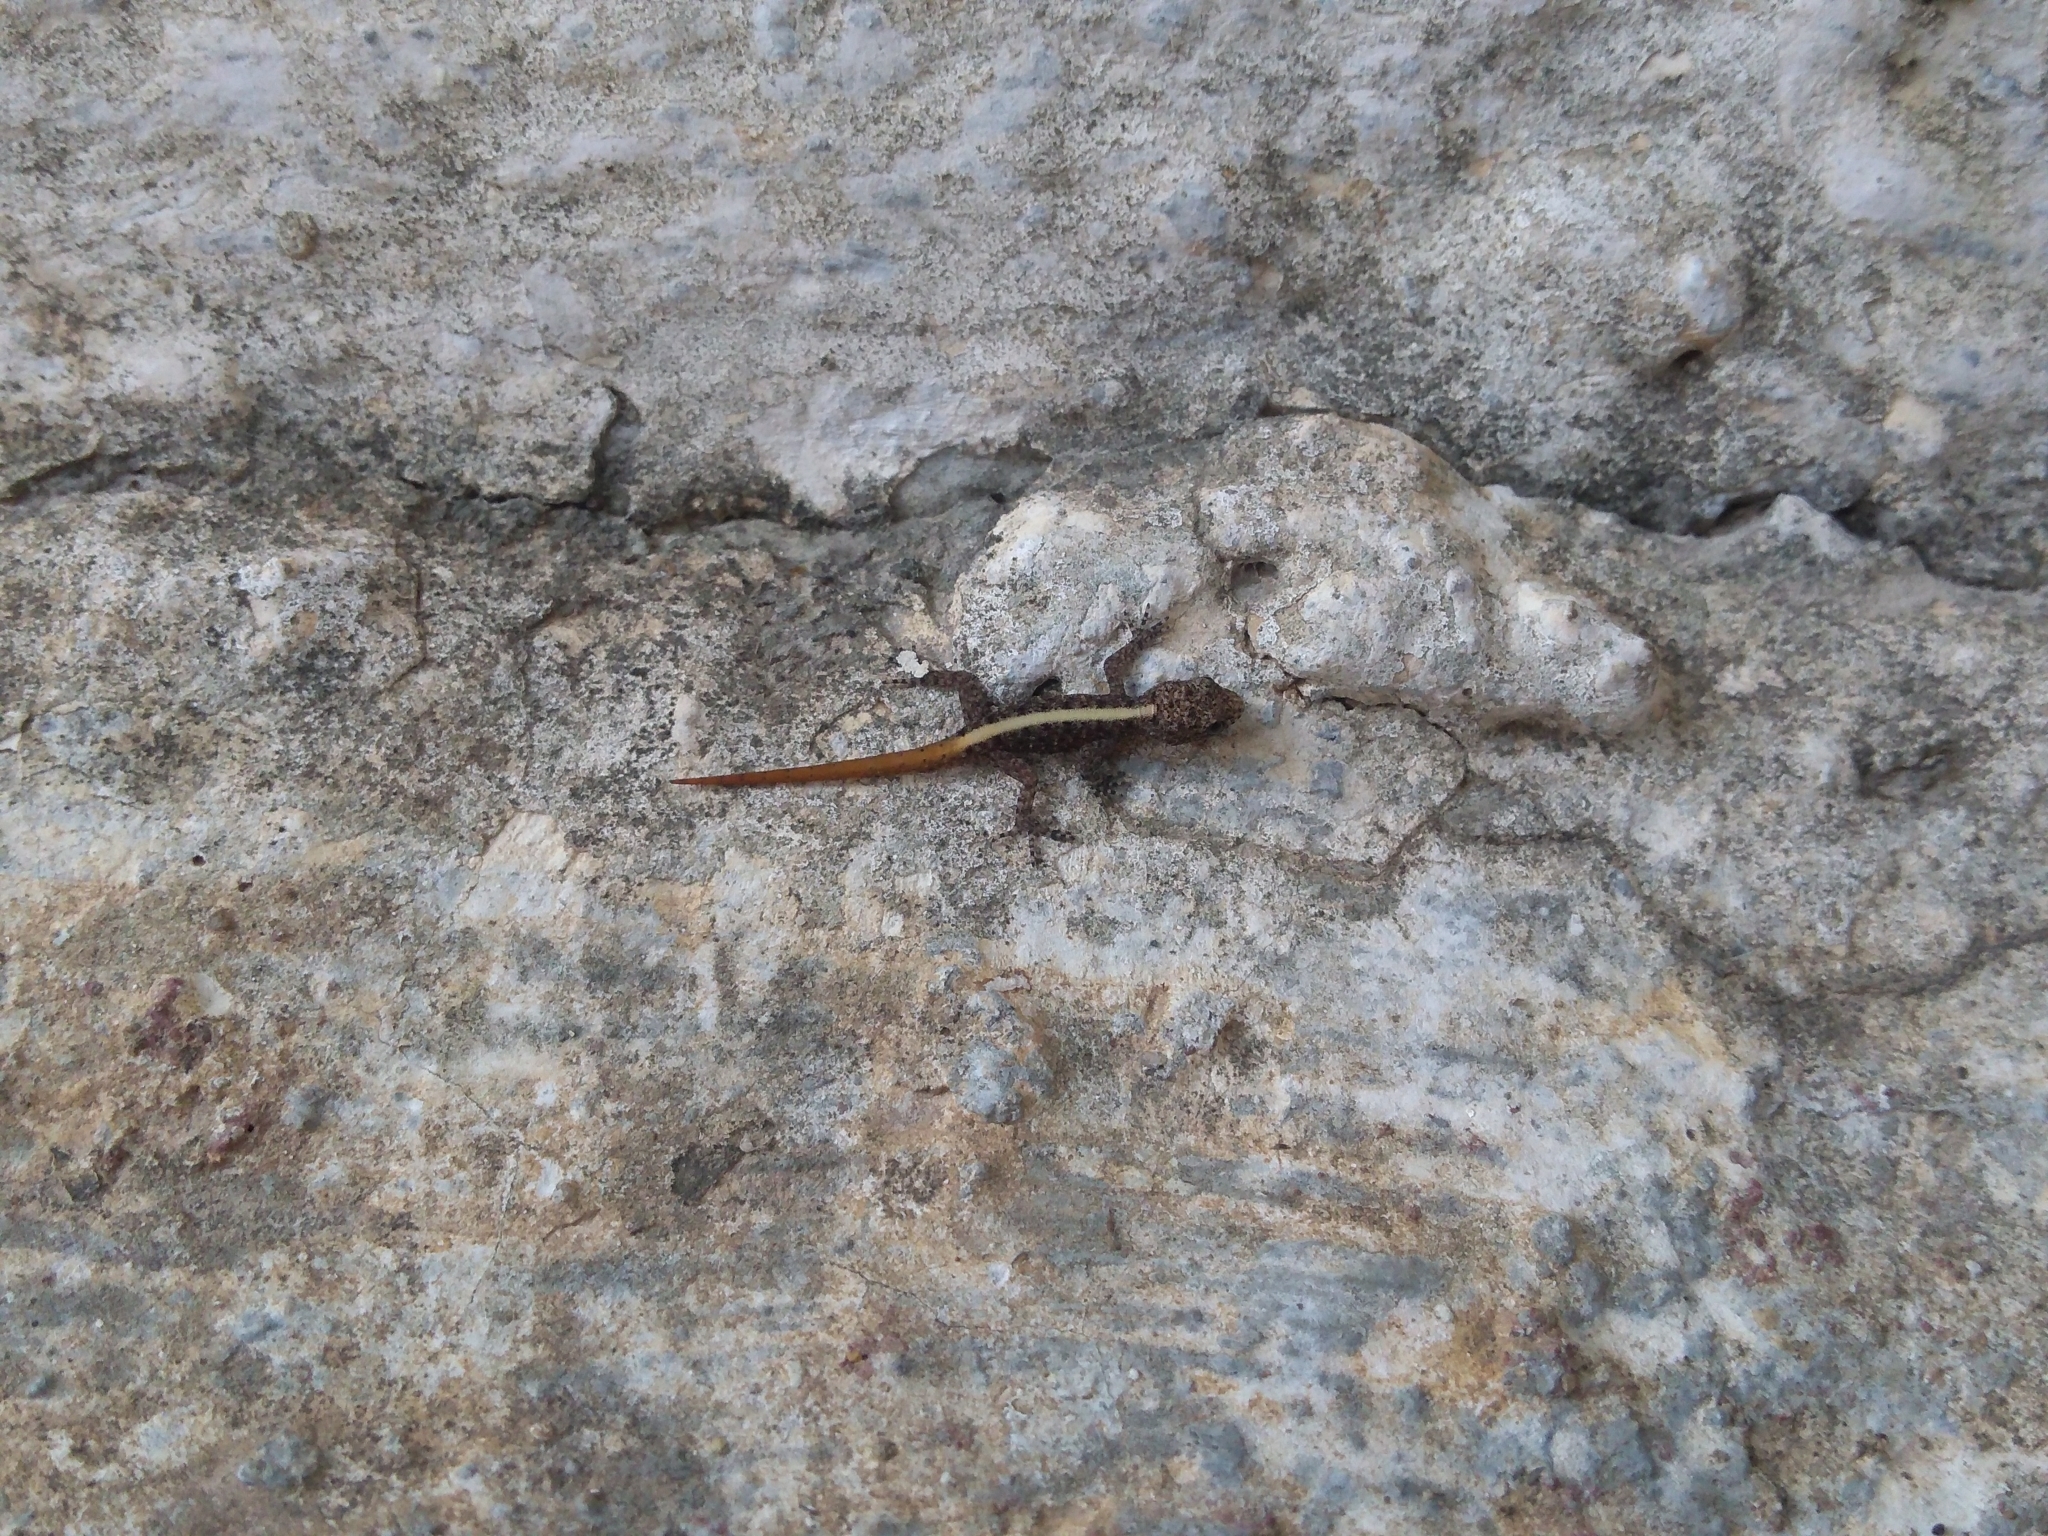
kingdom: Animalia
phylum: Chordata
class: Squamata
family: Gekkonidae
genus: Cnemaspis
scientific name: Cnemaspis mysoriensis
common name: Mysore day gecko
